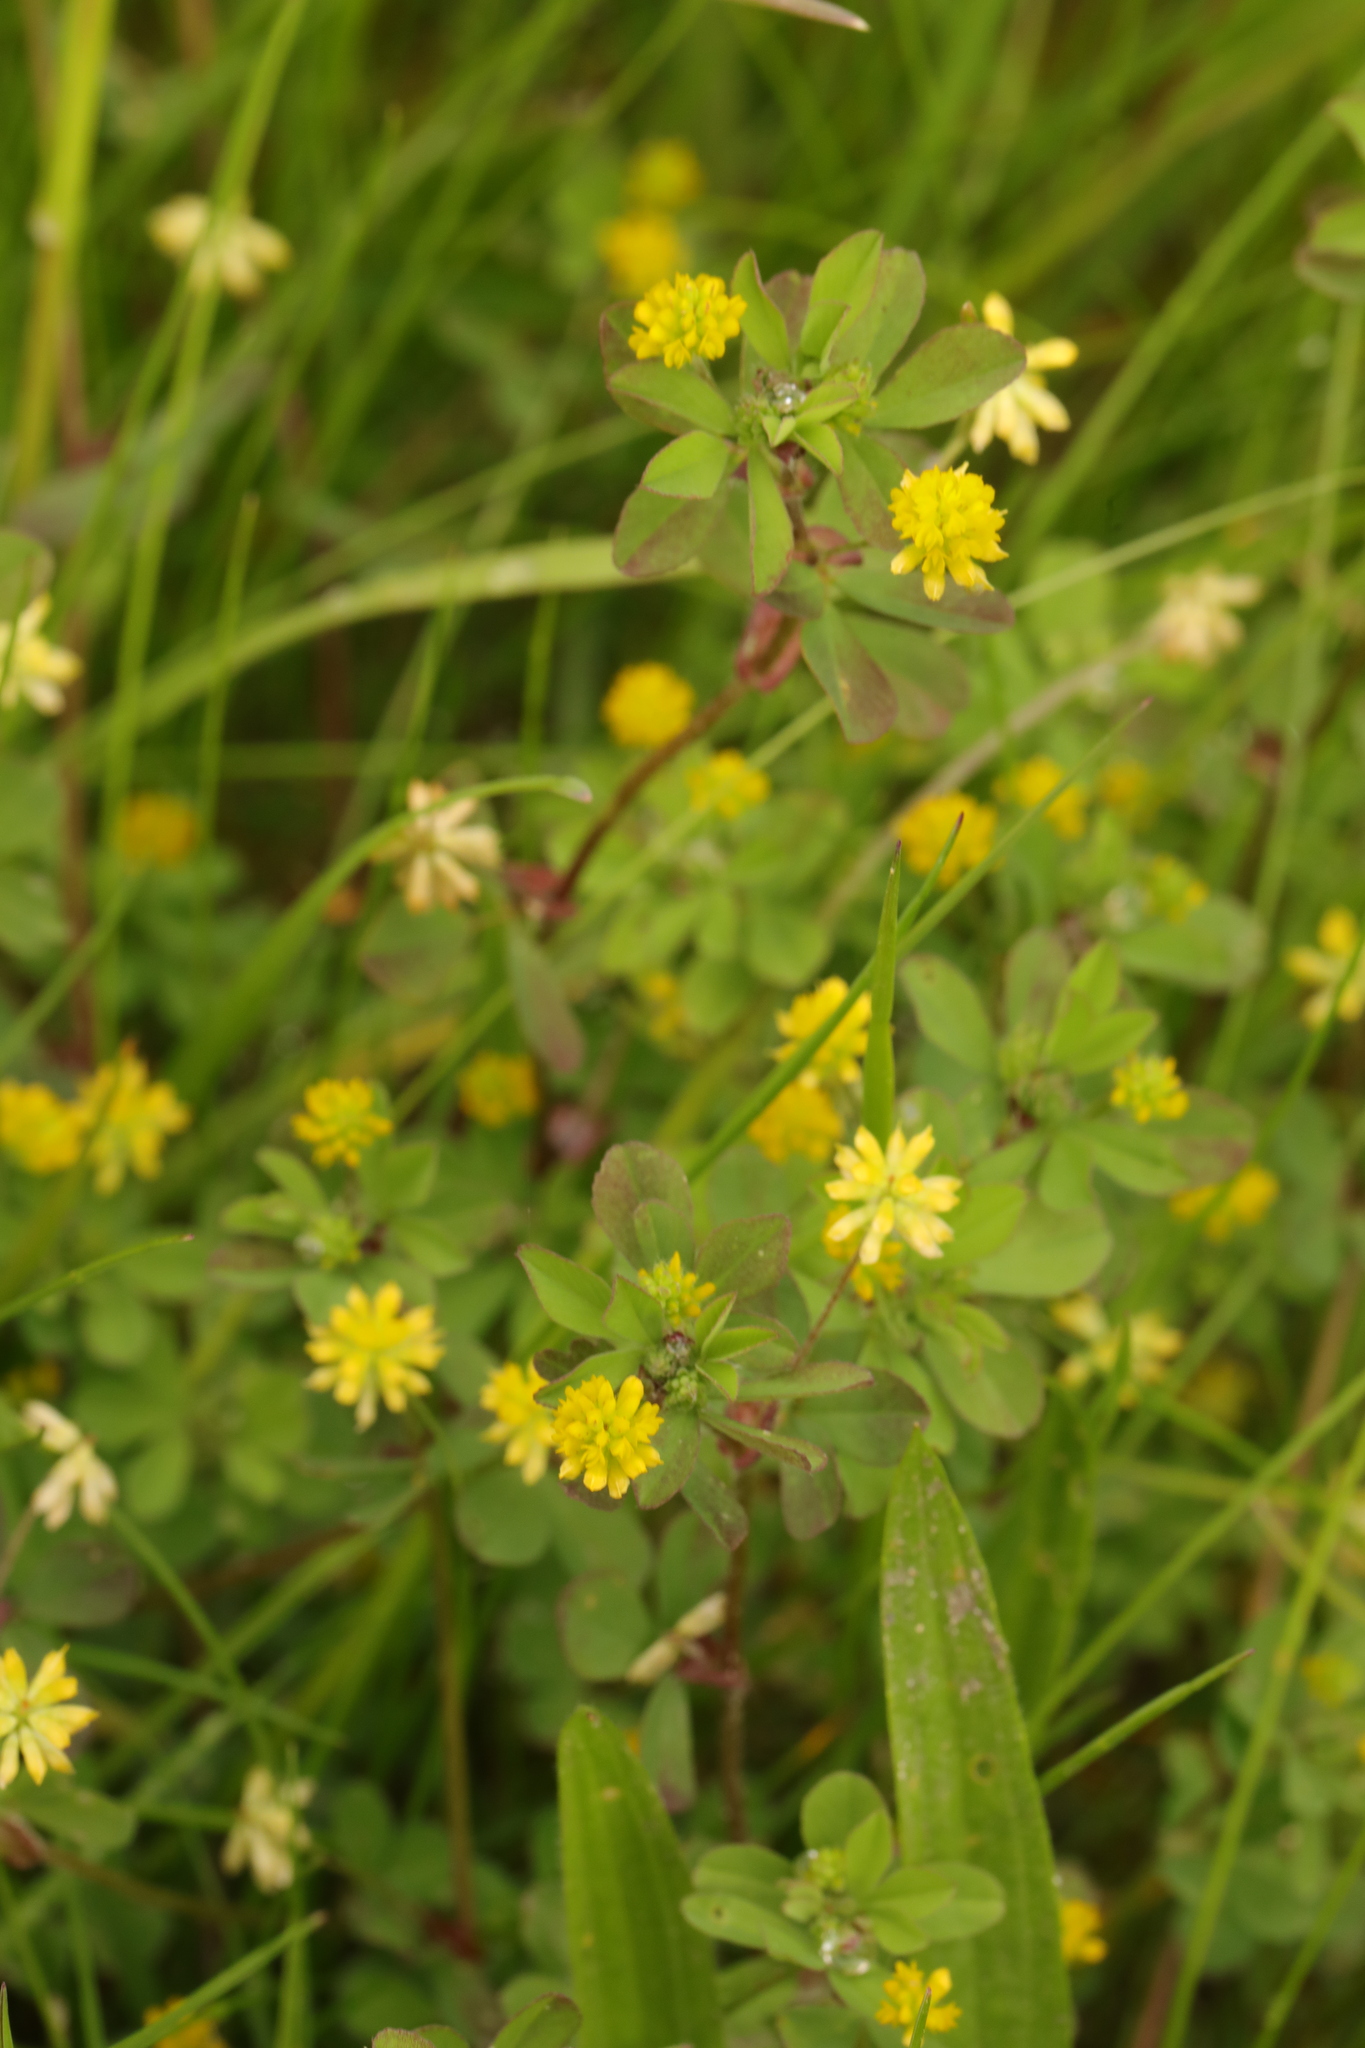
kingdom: Plantae
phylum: Tracheophyta
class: Magnoliopsida
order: Fabales
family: Fabaceae
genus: Trifolium
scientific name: Trifolium dubium
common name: Suckling clover
